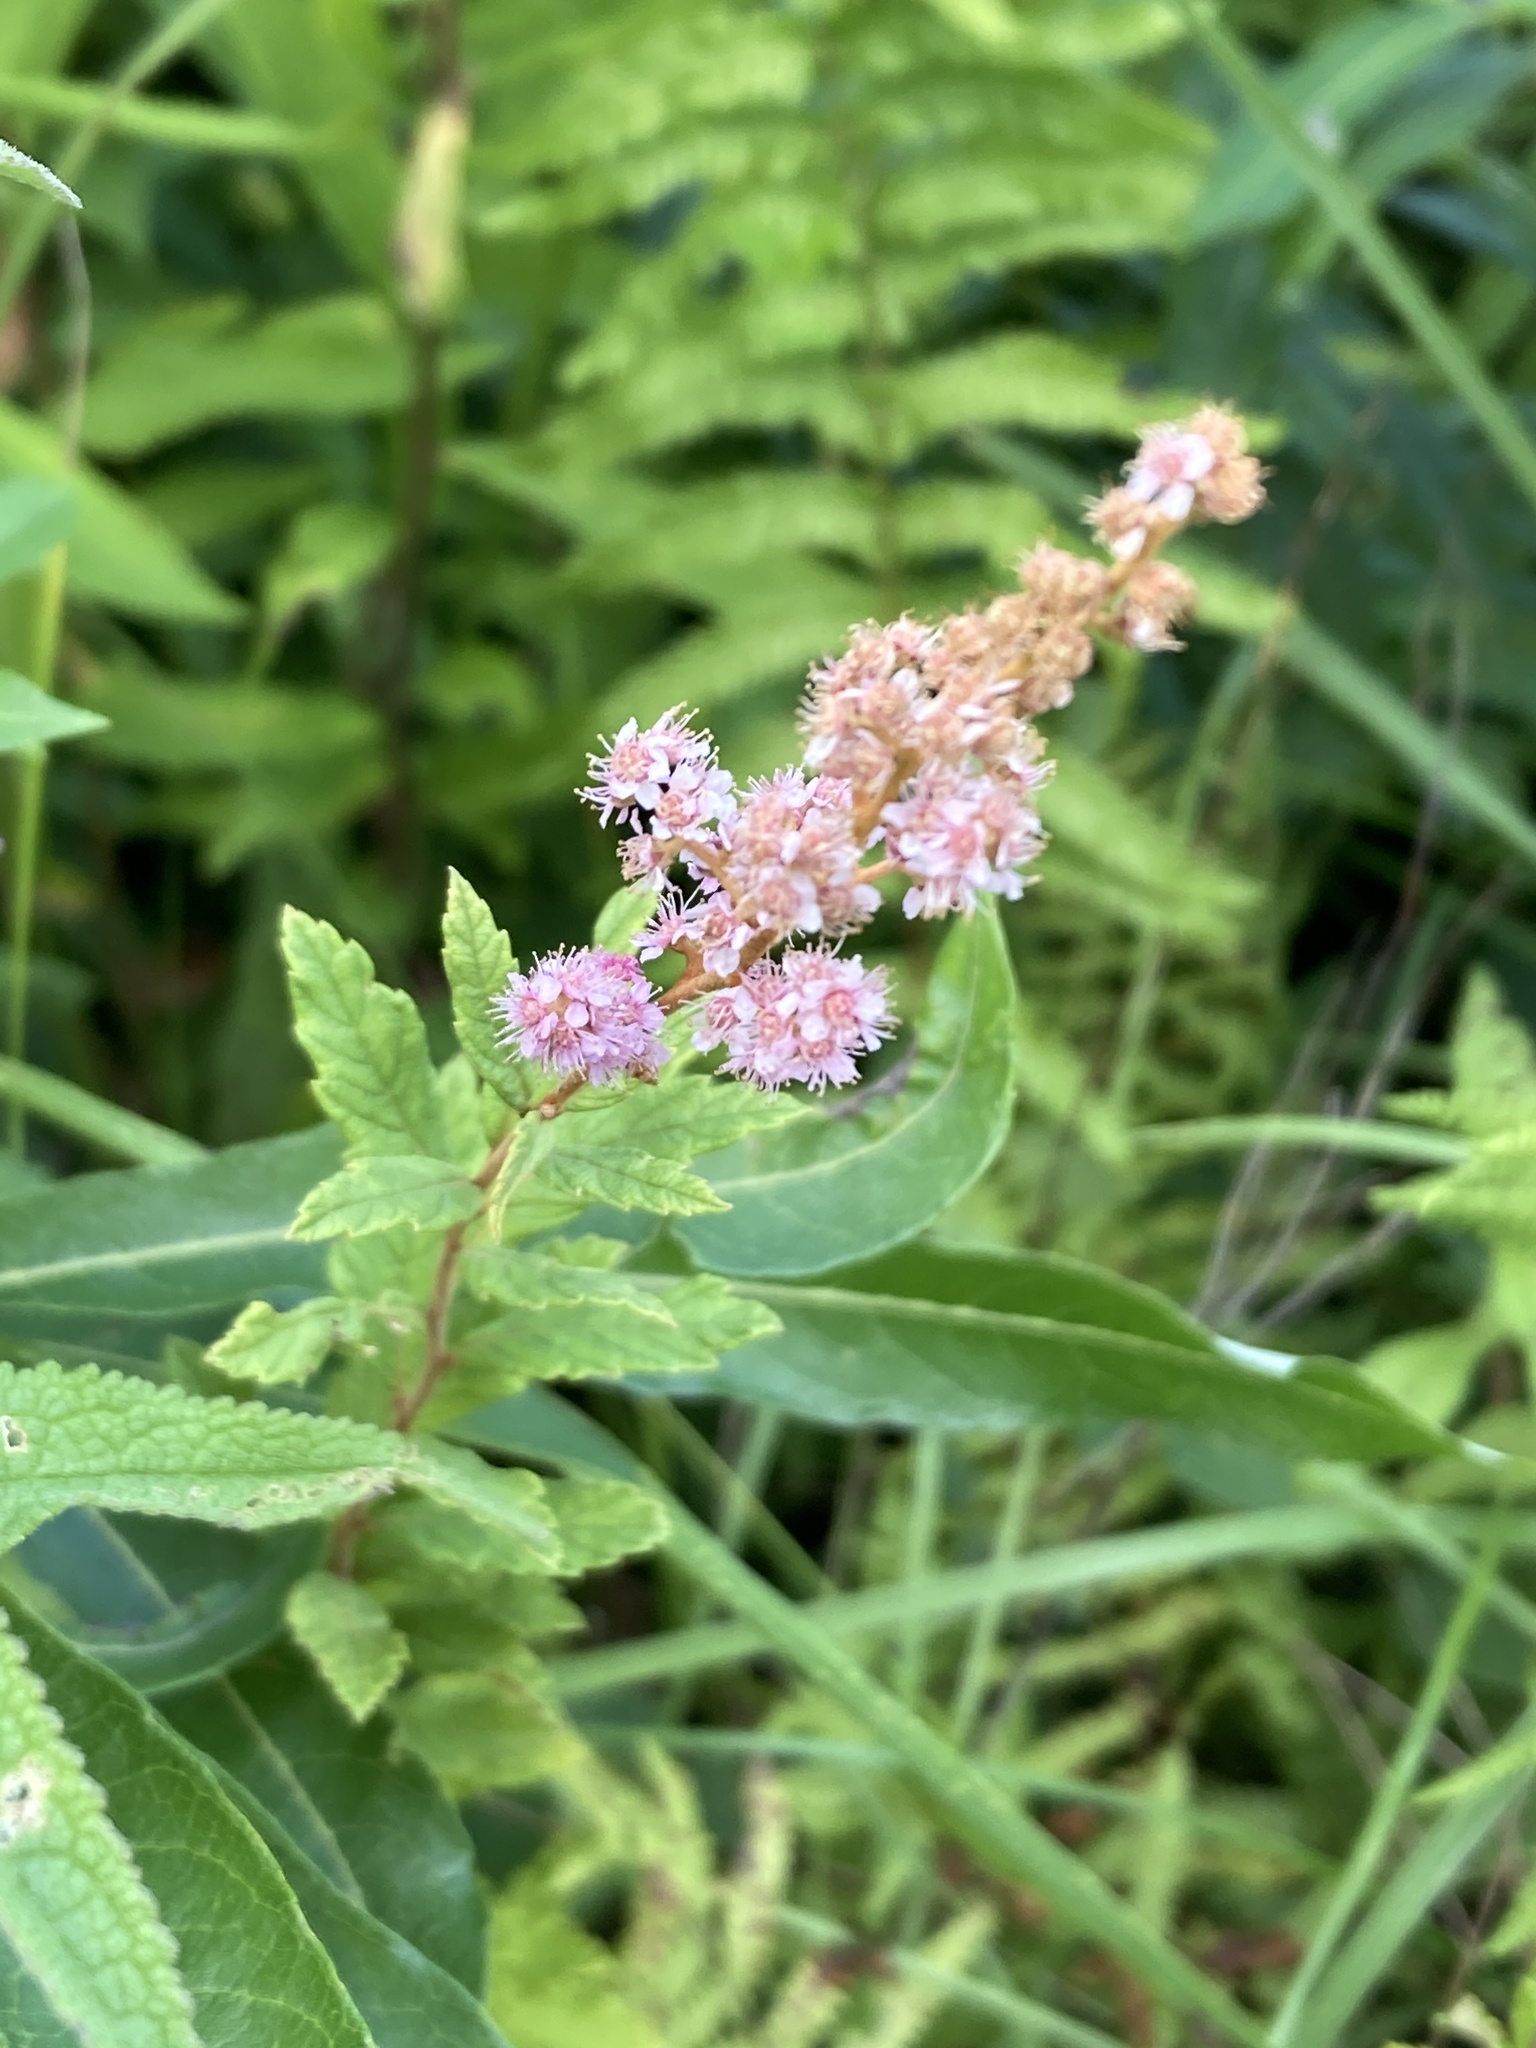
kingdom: Plantae
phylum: Tracheophyta
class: Magnoliopsida
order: Rosales
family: Rosaceae
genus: Spiraea
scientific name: Spiraea tomentosa
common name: Hardhack
